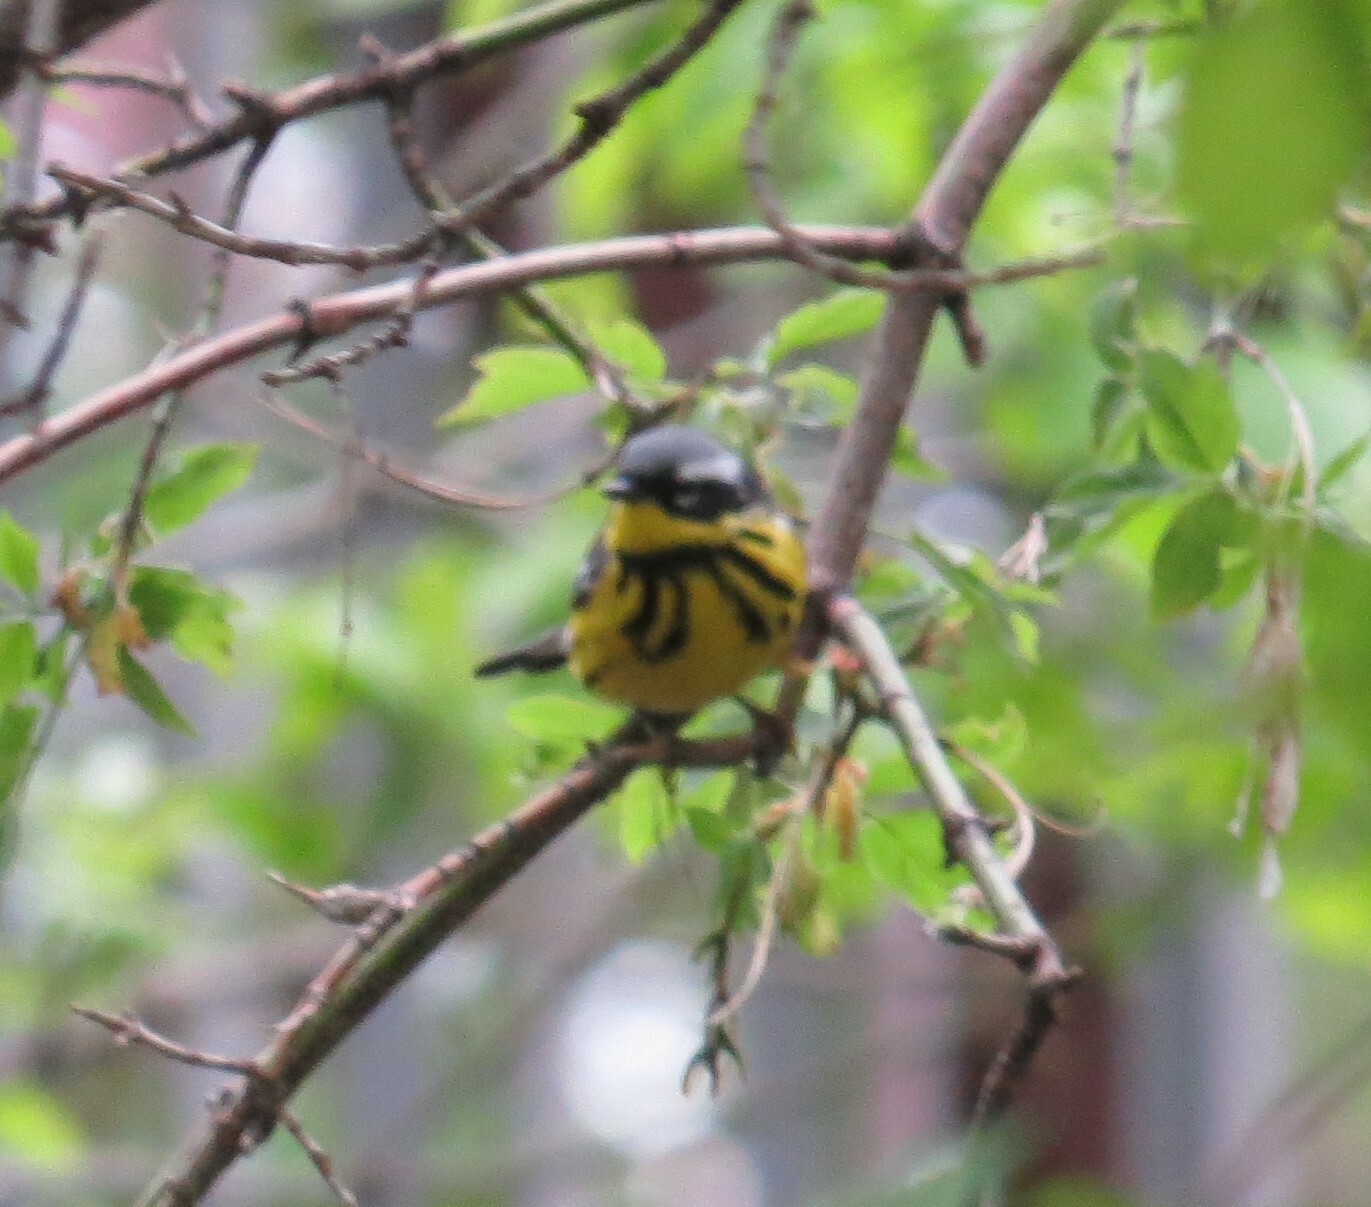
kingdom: Animalia
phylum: Chordata
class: Aves
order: Passeriformes
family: Parulidae
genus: Setophaga
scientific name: Setophaga magnolia
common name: Magnolia warbler
